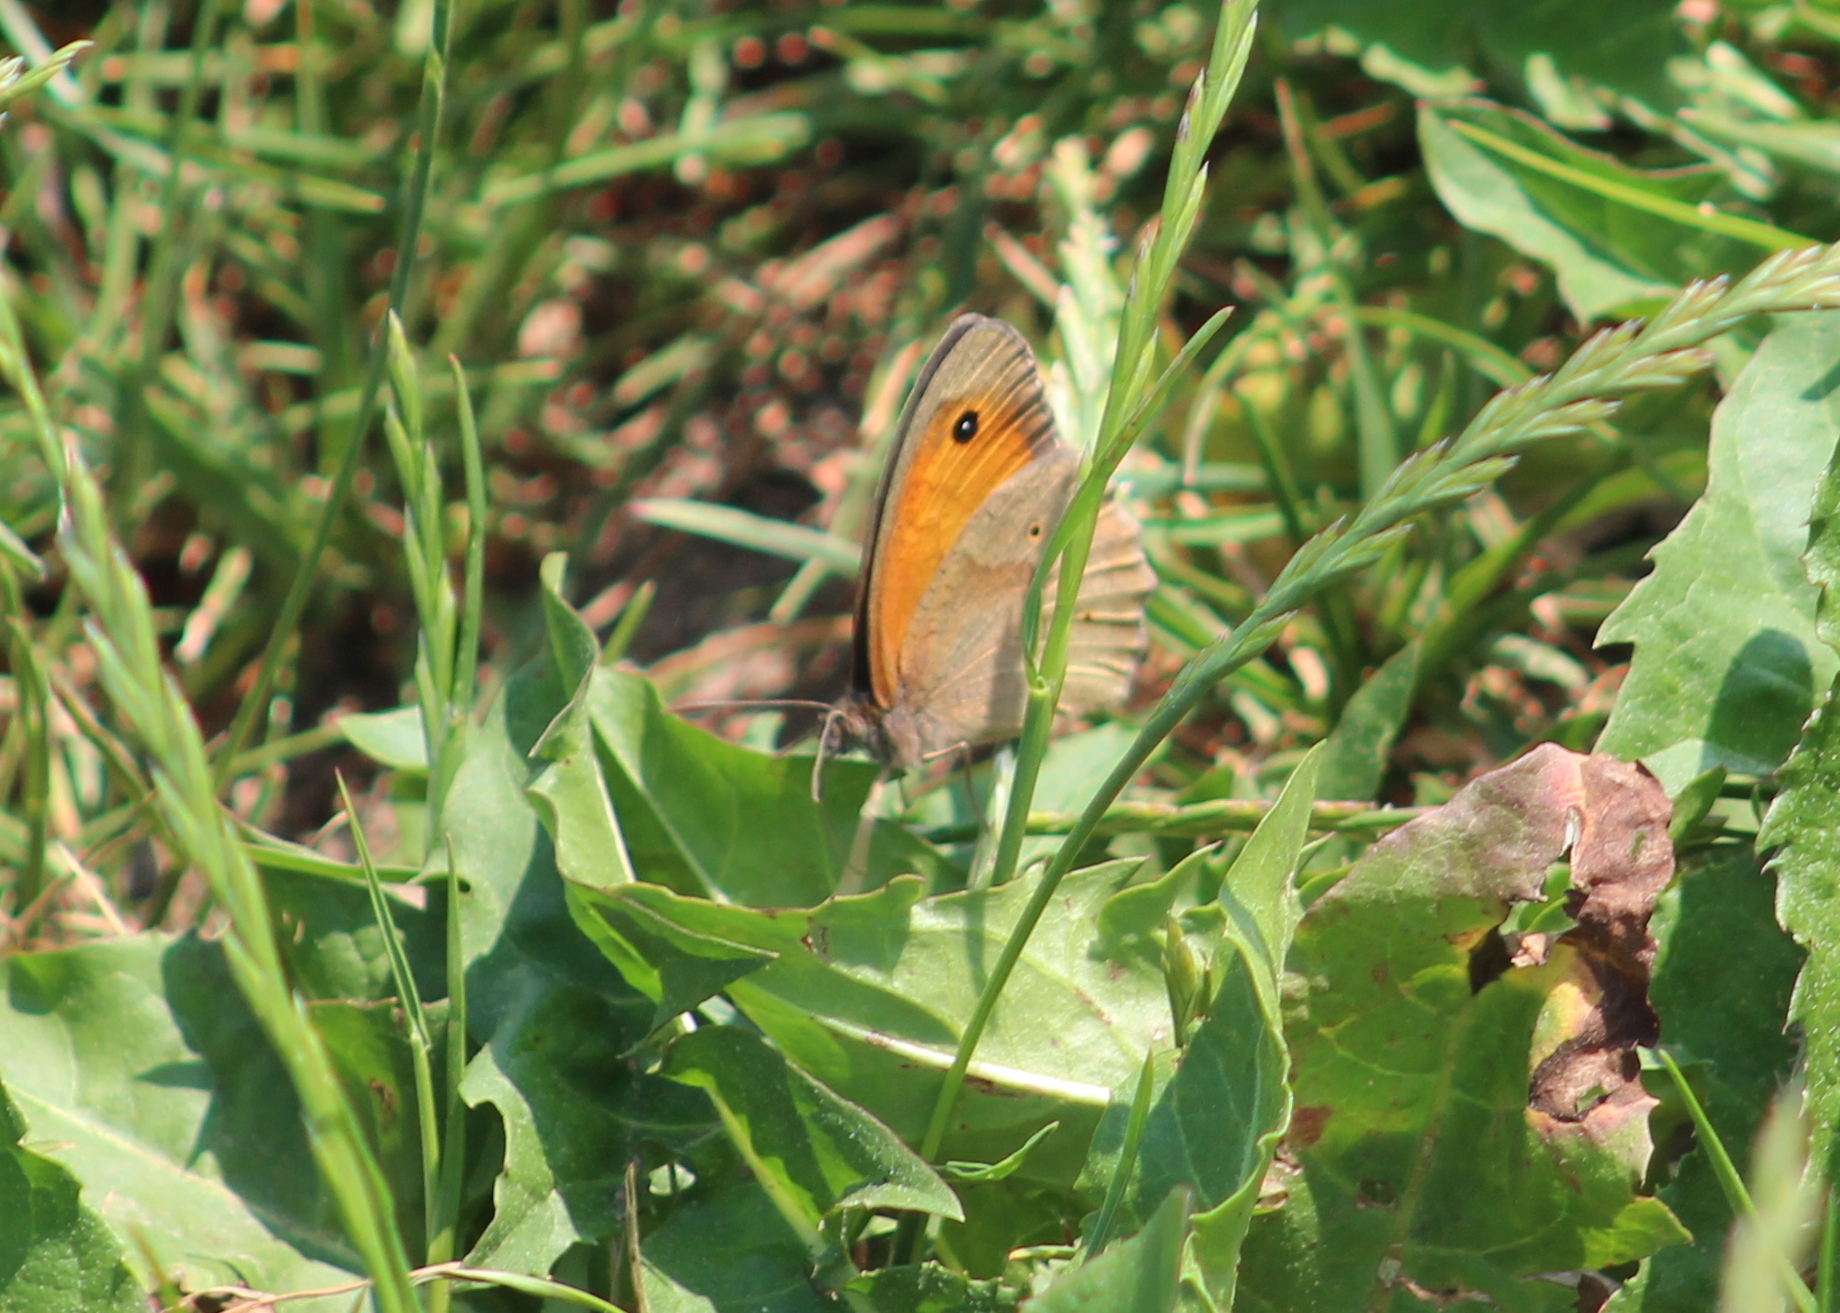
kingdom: Animalia
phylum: Arthropoda
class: Insecta
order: Lepidoptera
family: Nymphalidae
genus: Maniola
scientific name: Maniola jurtina
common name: Meadow brown
